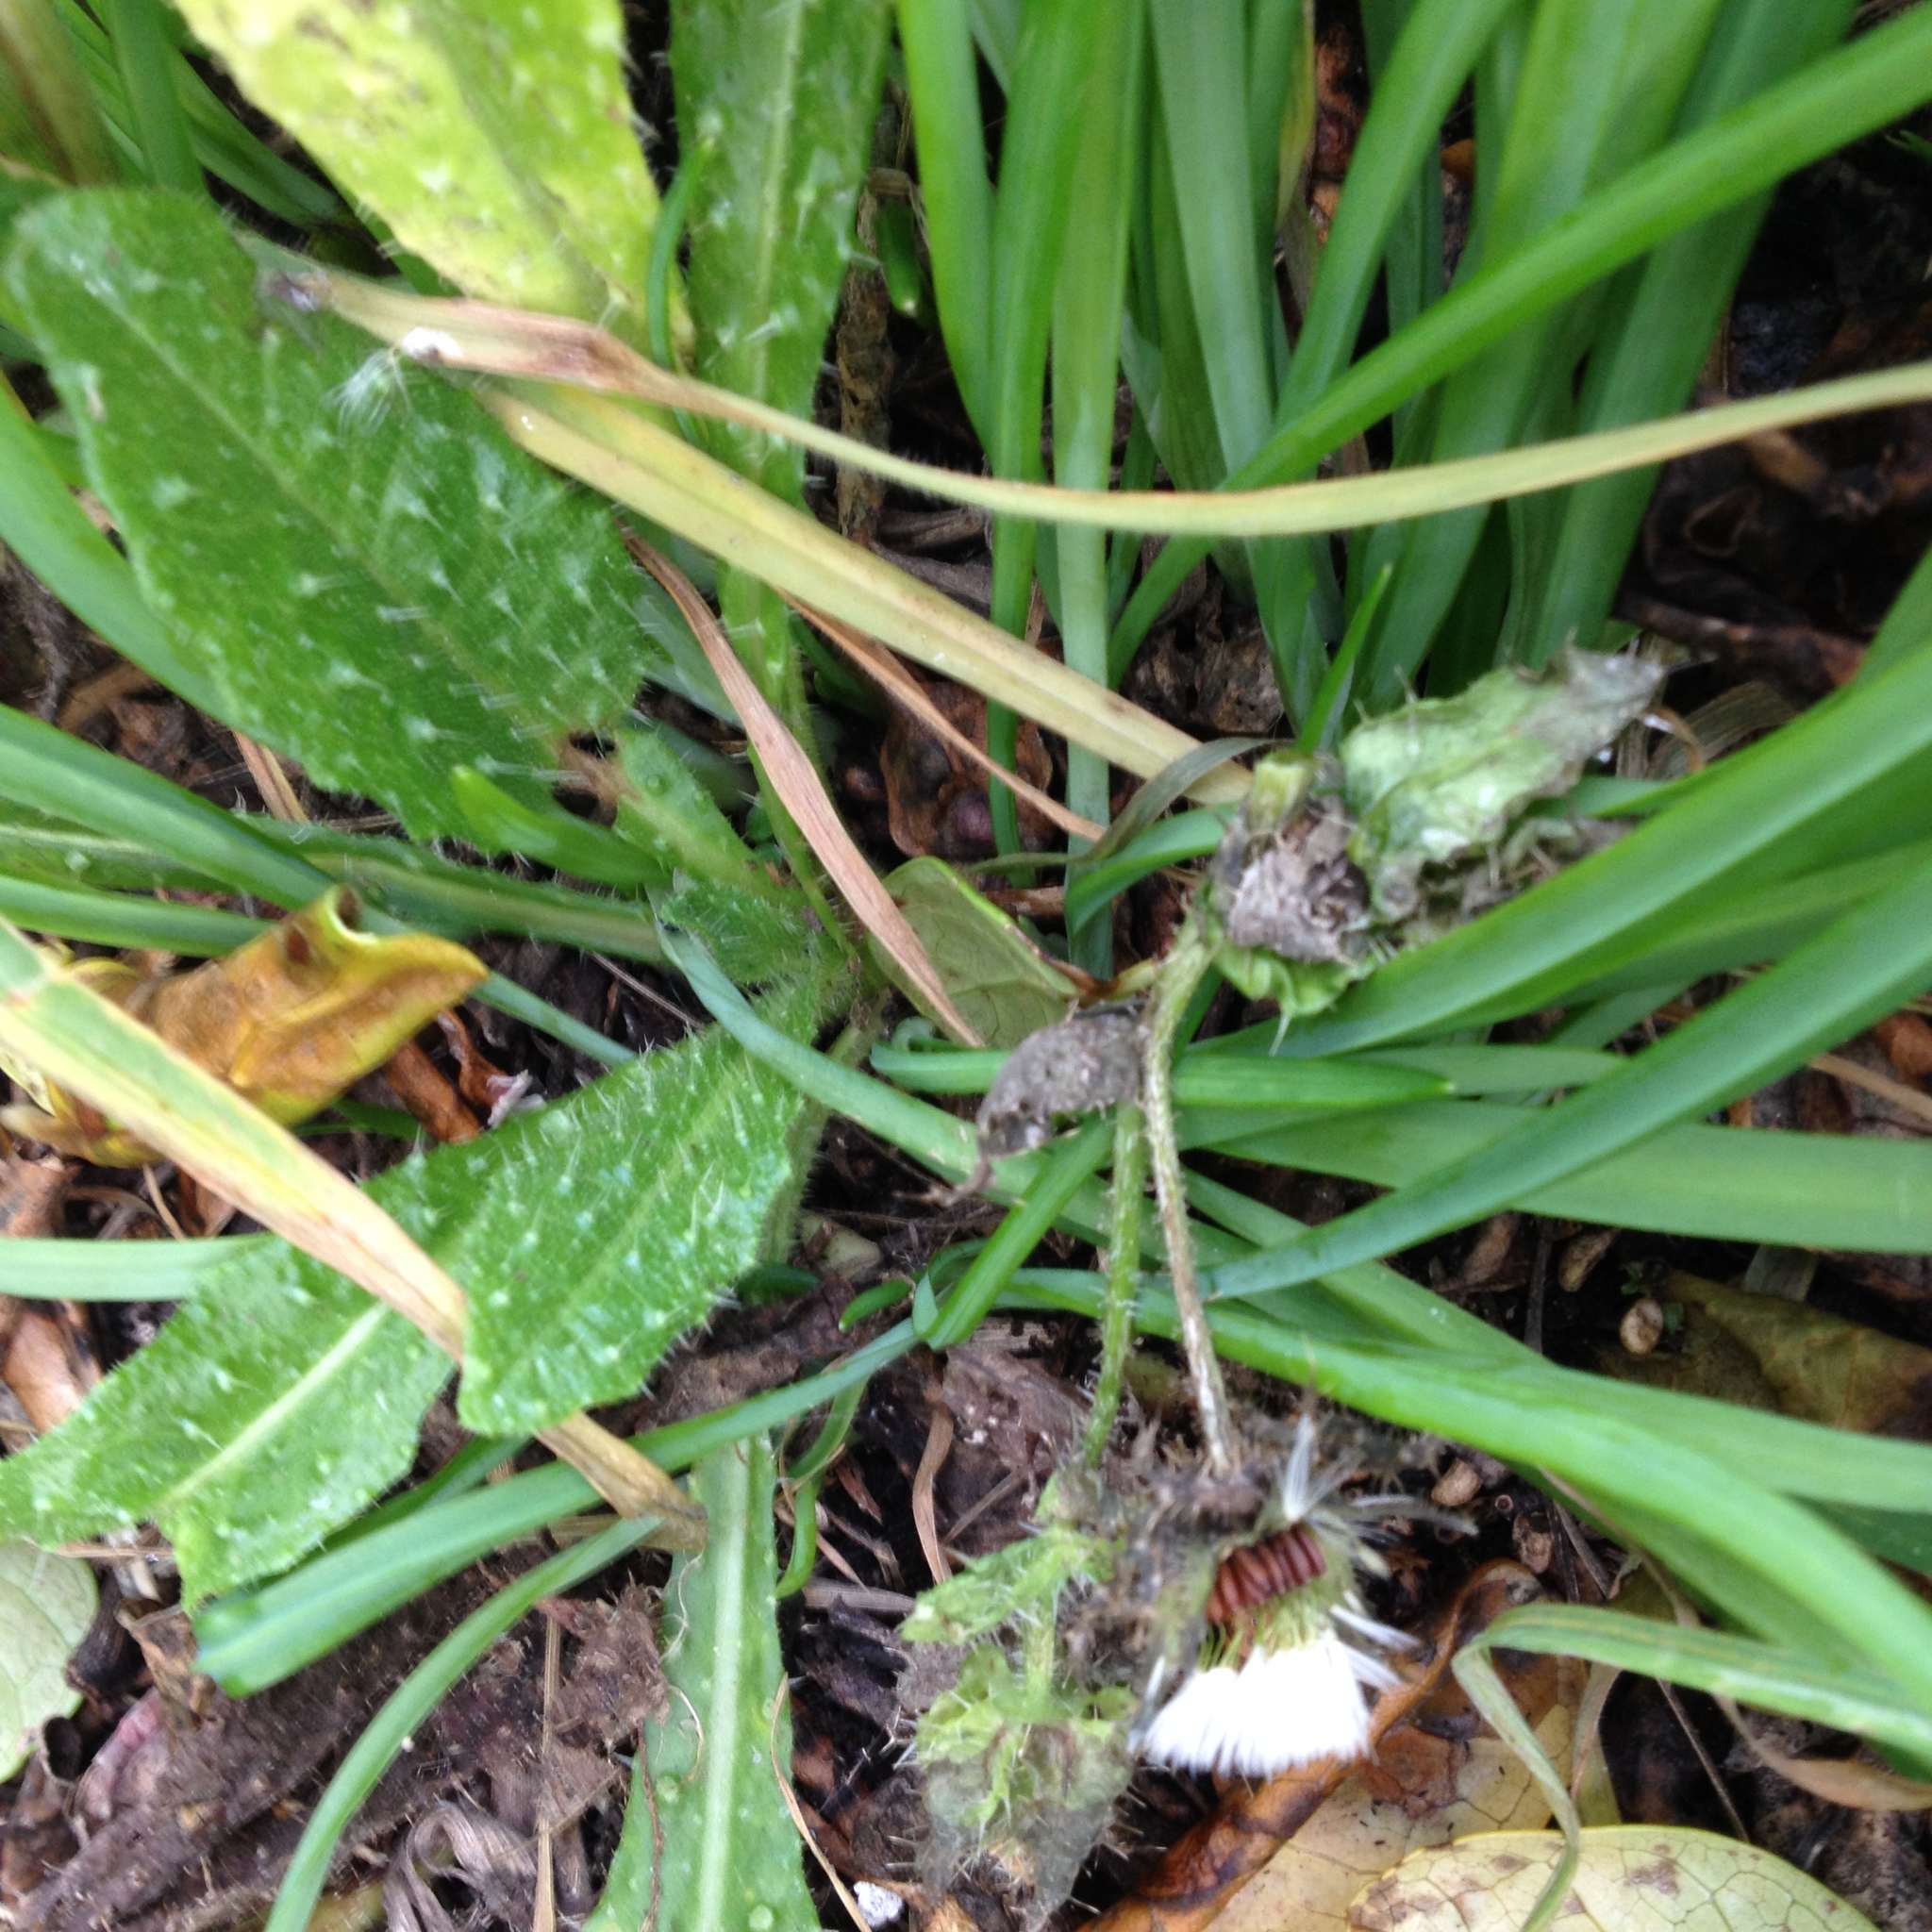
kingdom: Plantae
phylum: Tracheophyta
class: Magnoliopsida
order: Asterales
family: Asteraceae
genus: Helminthotheca
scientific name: Helminthotheca echioides
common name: Ox-tongue
